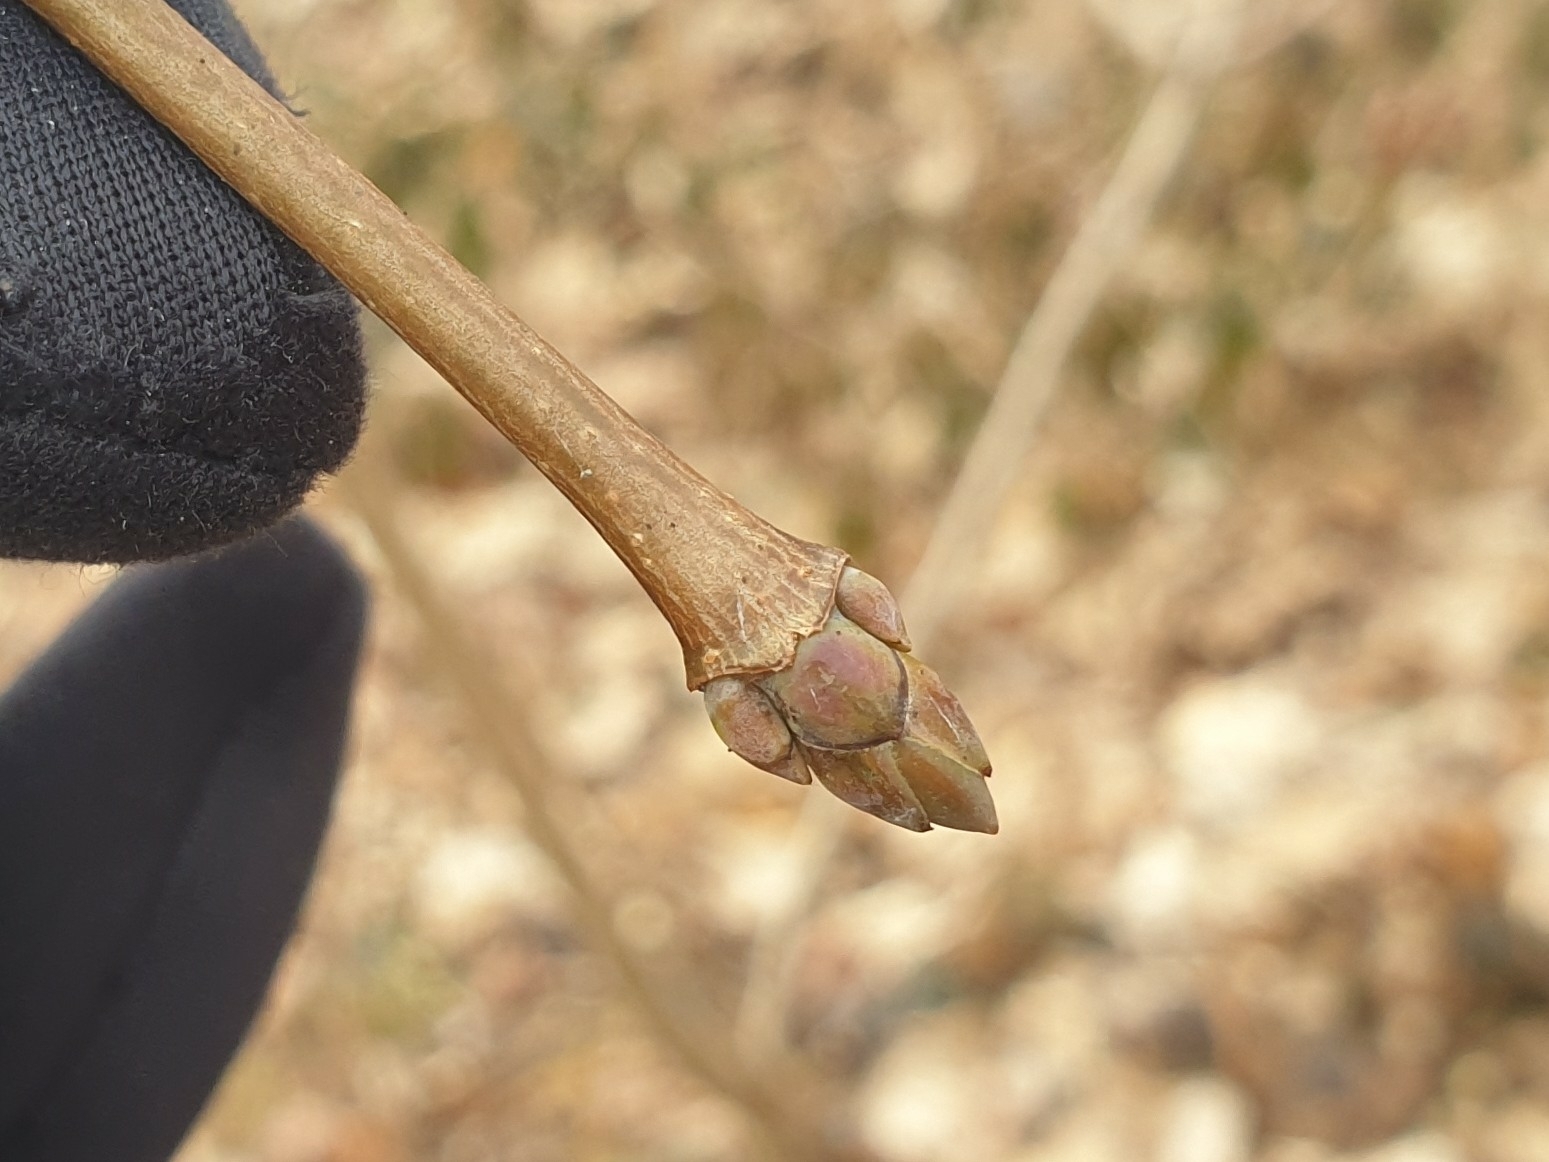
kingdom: Plantae
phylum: Tracheophyta
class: Magnoliopsida
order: Sapindales
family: Sapindaceae
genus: Acer
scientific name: Acer platanoides
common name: Norway maple
